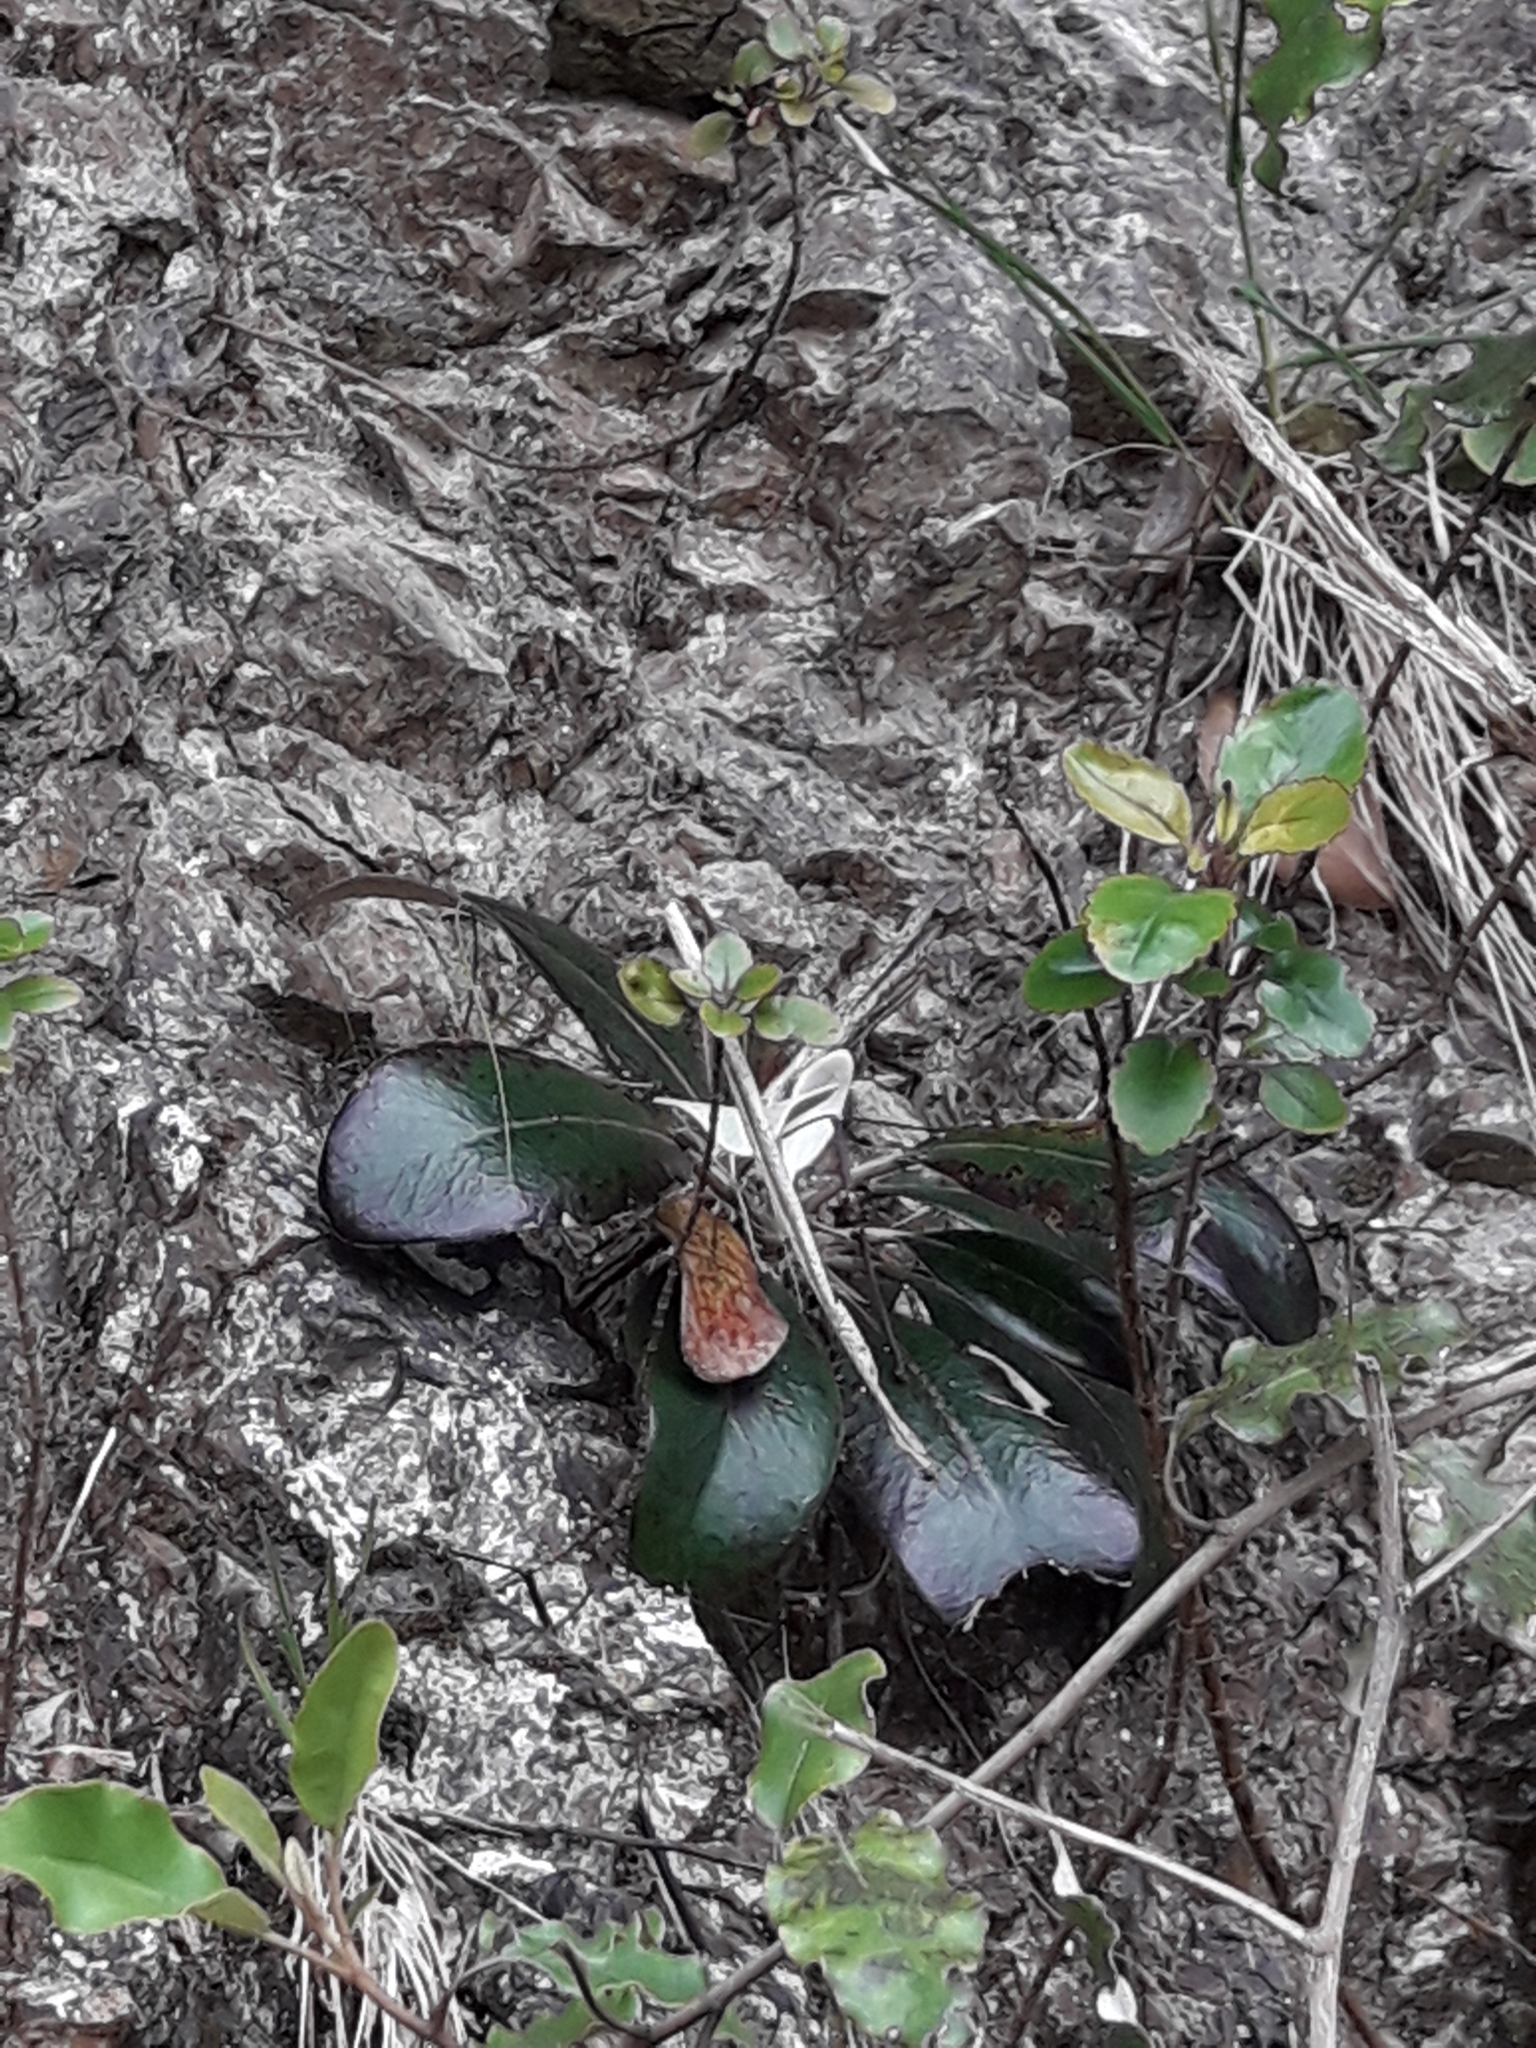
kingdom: Plantae
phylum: Tracheophyta
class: Magnoliopsida
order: Asterales
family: Asteraceae
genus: Pachystegia
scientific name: Pachystegia insignis
